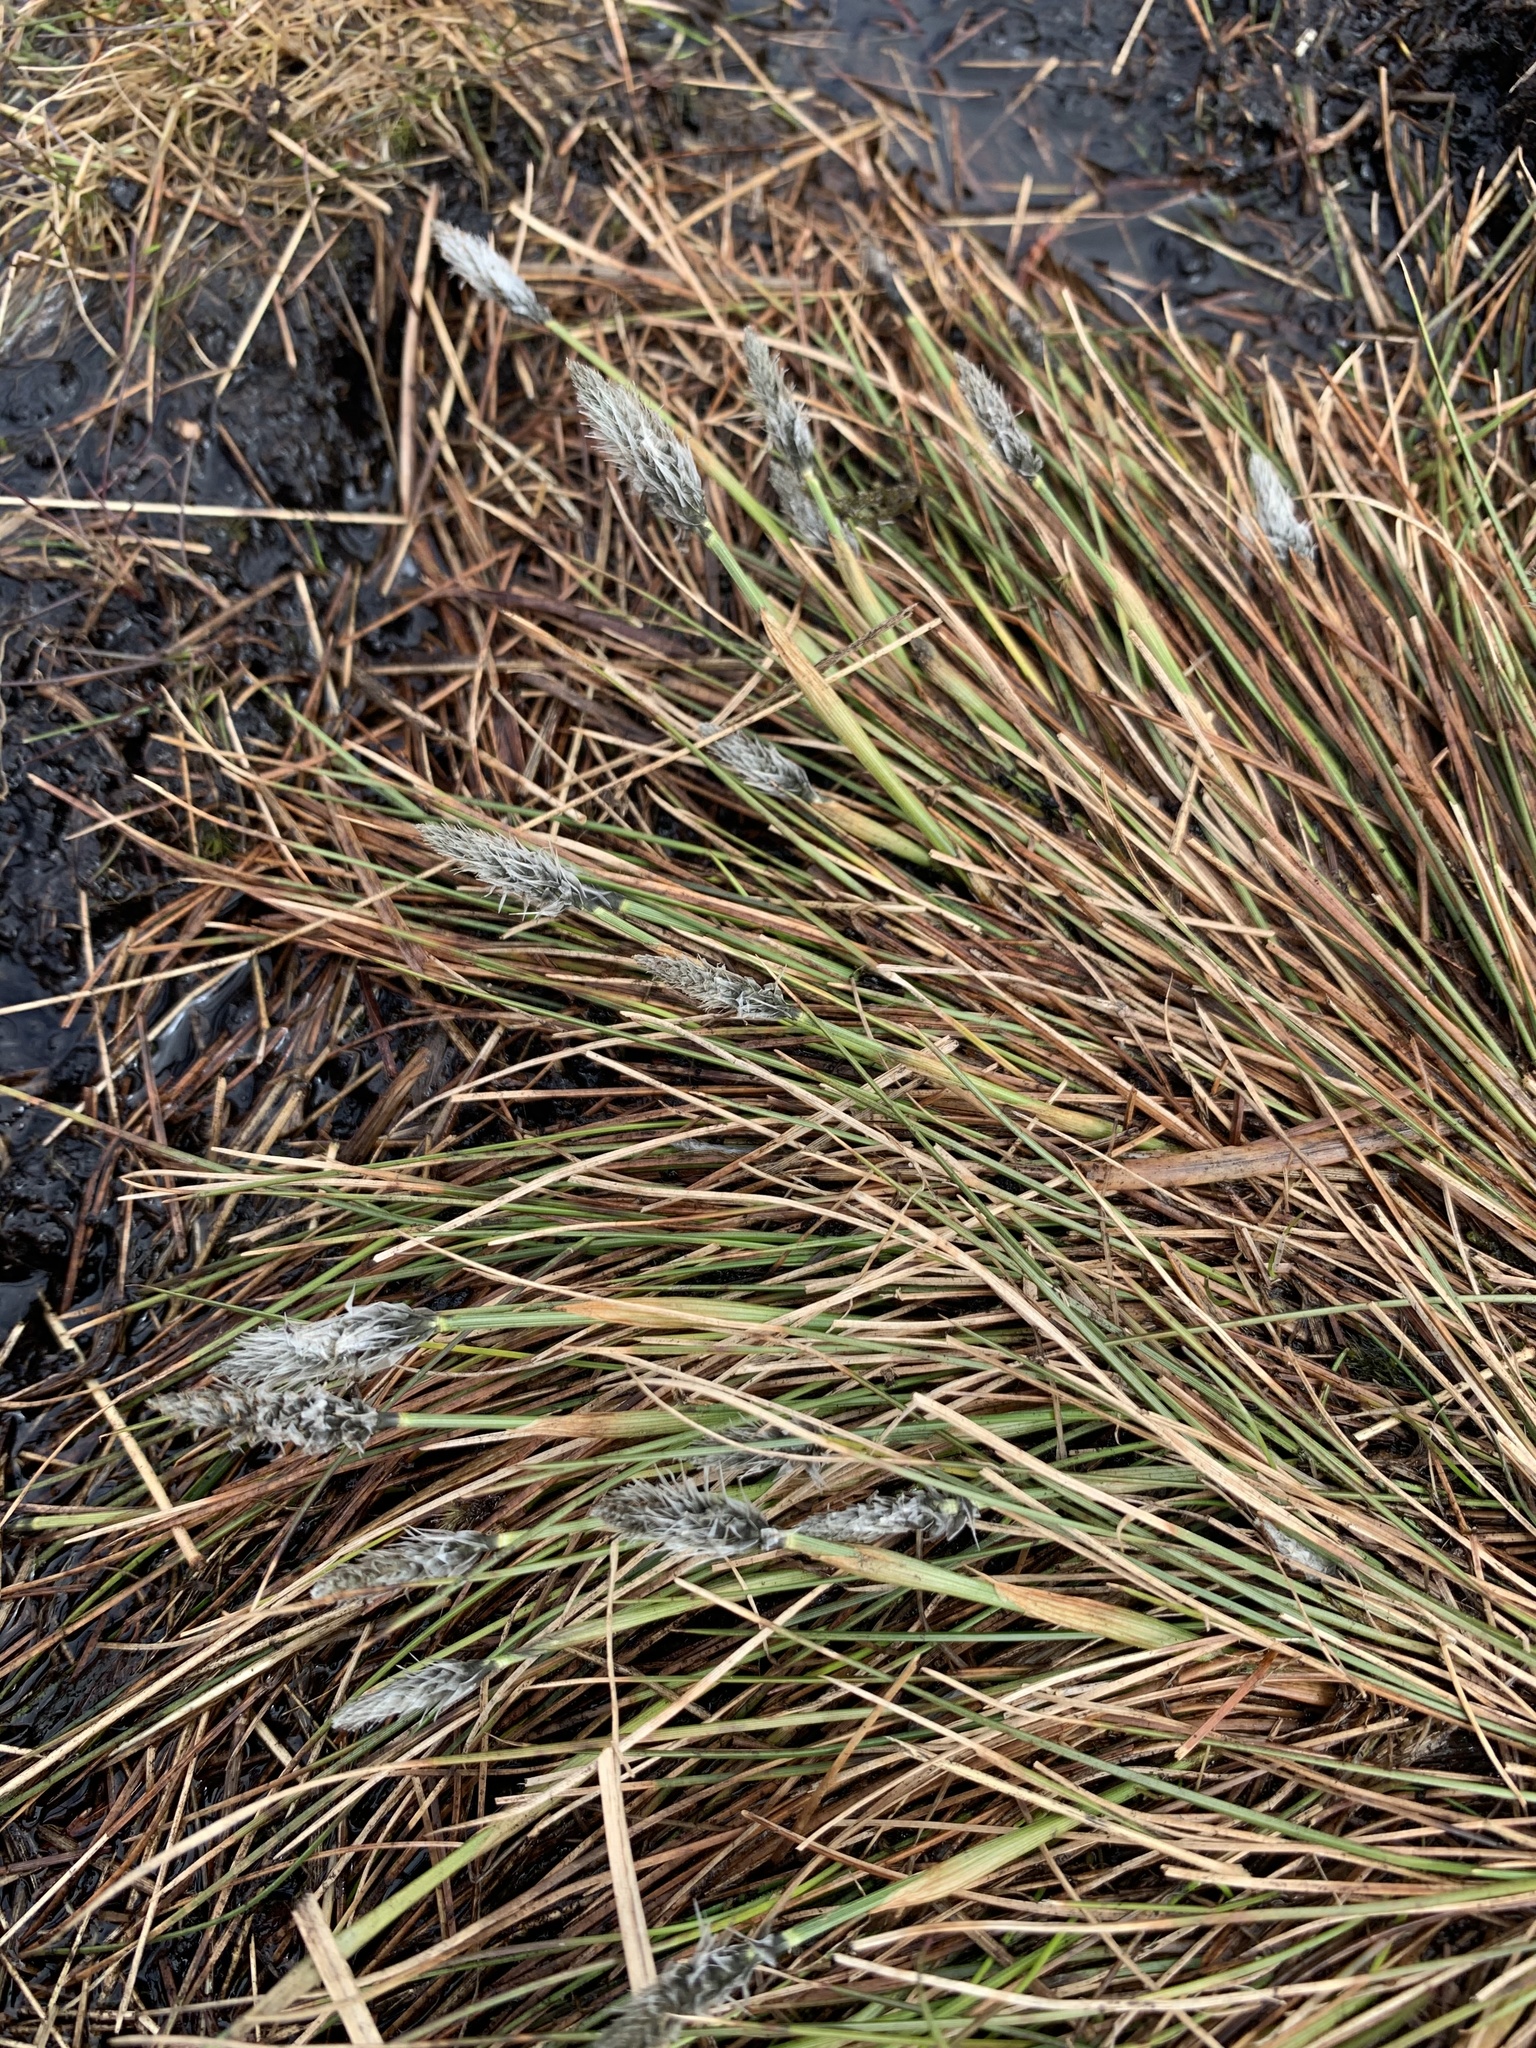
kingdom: Plantae
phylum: Tracheophyta
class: Liliopsida
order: Poales
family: Cyperaceae
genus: Eriophorum
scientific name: Eriophorum vaginatum
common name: Hare's-tail cottongrass
